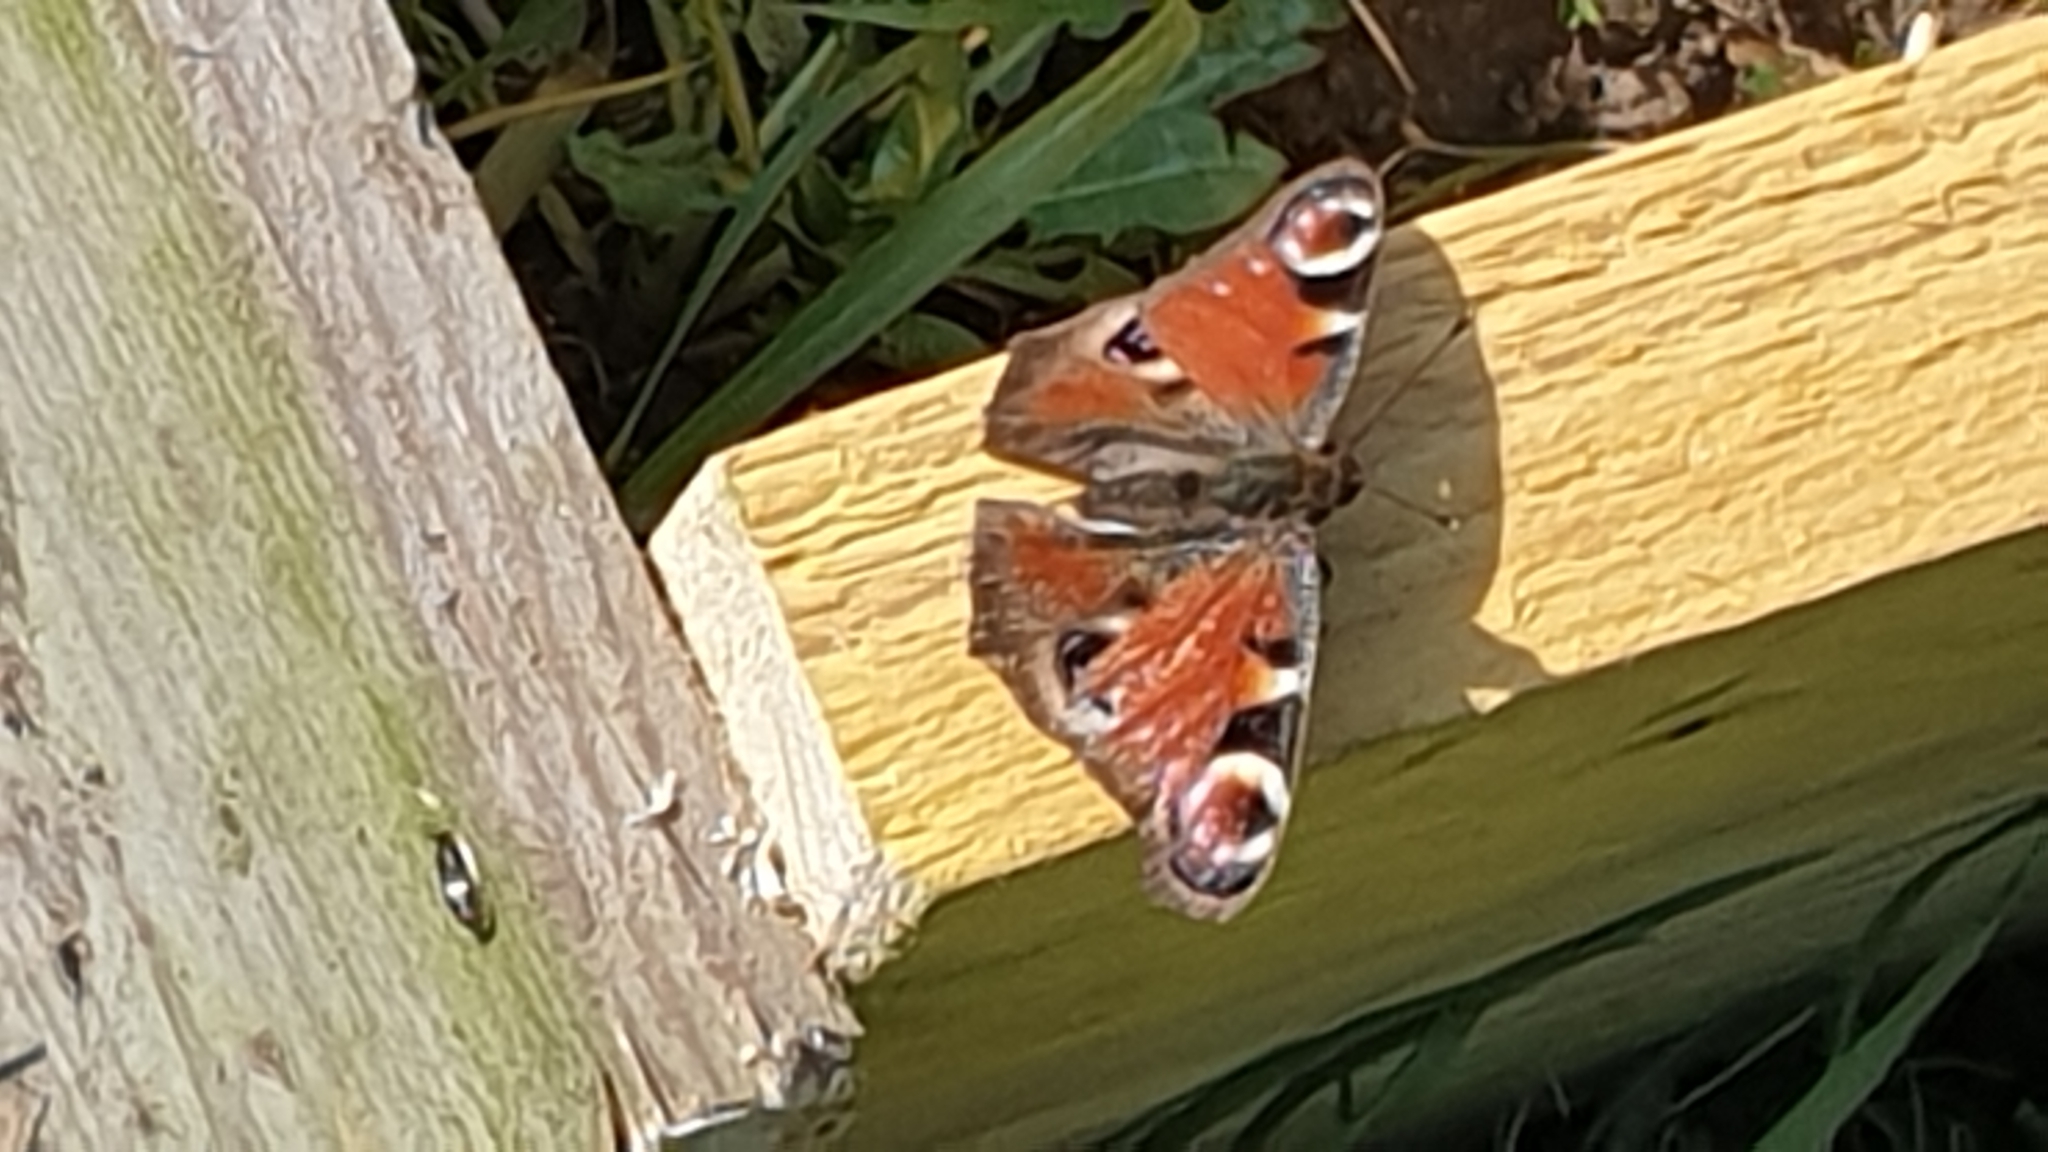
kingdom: Animalia
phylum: Arthropoda
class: Insecta
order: Lepidoptera
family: Nymphalidae
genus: Aglais
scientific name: Aglais io
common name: Peacock
